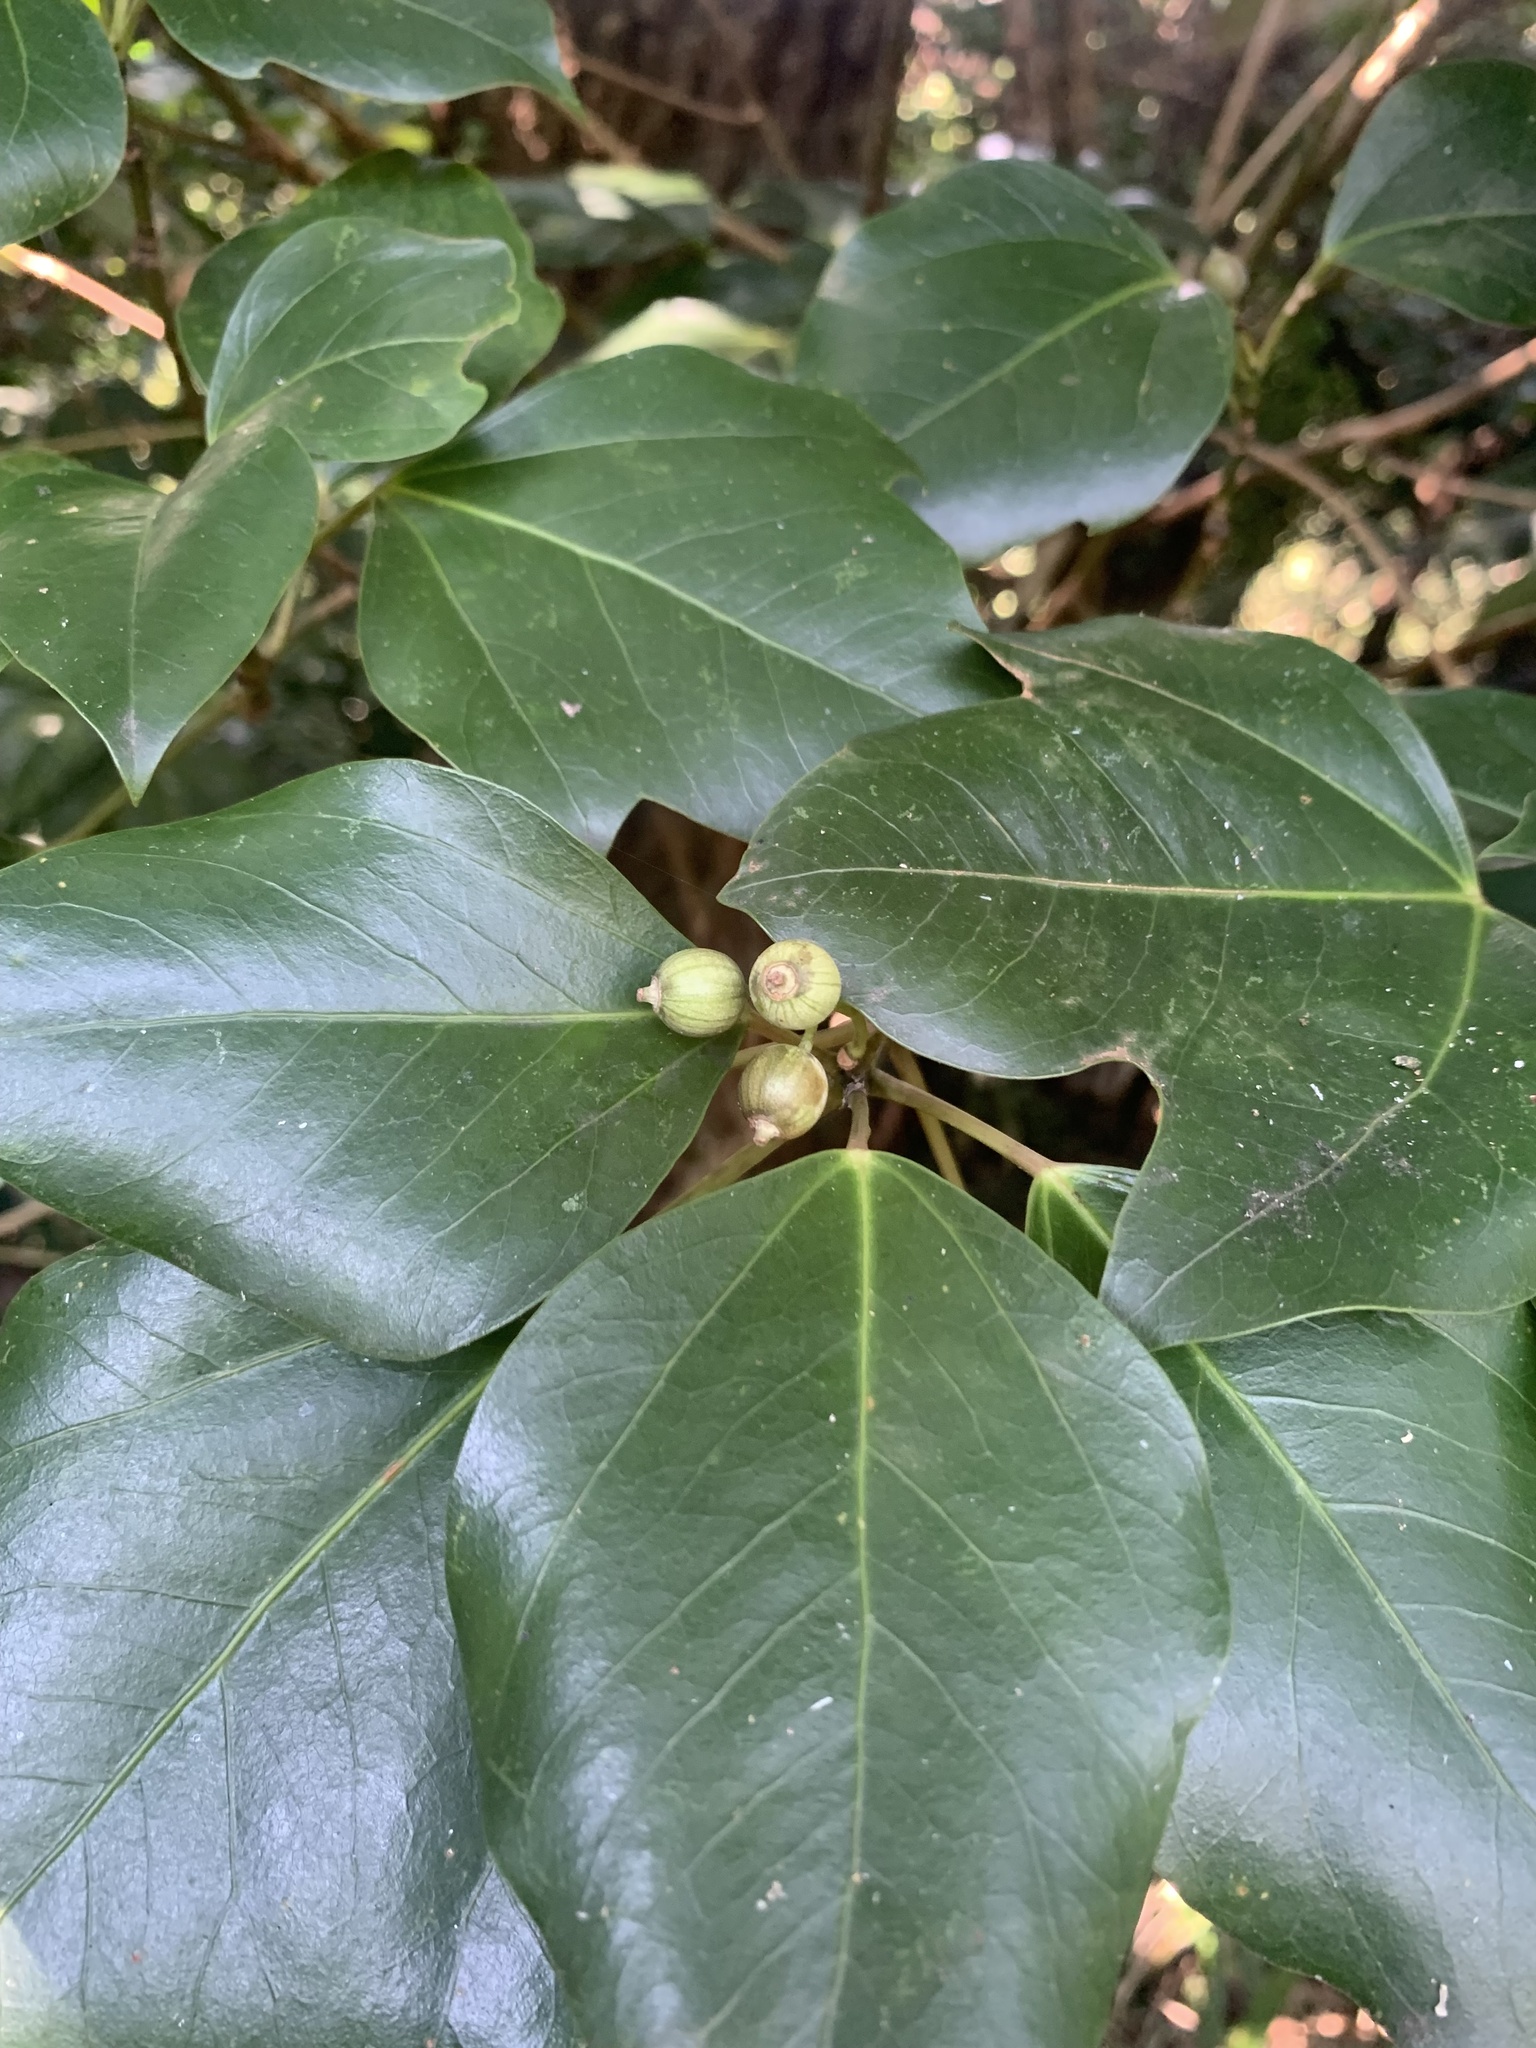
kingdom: Plantae
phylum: Tracheophyta
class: Magnoliopsida
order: Apiales
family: Araliaceae
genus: Dendropanax
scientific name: Dendropanax trifidus
